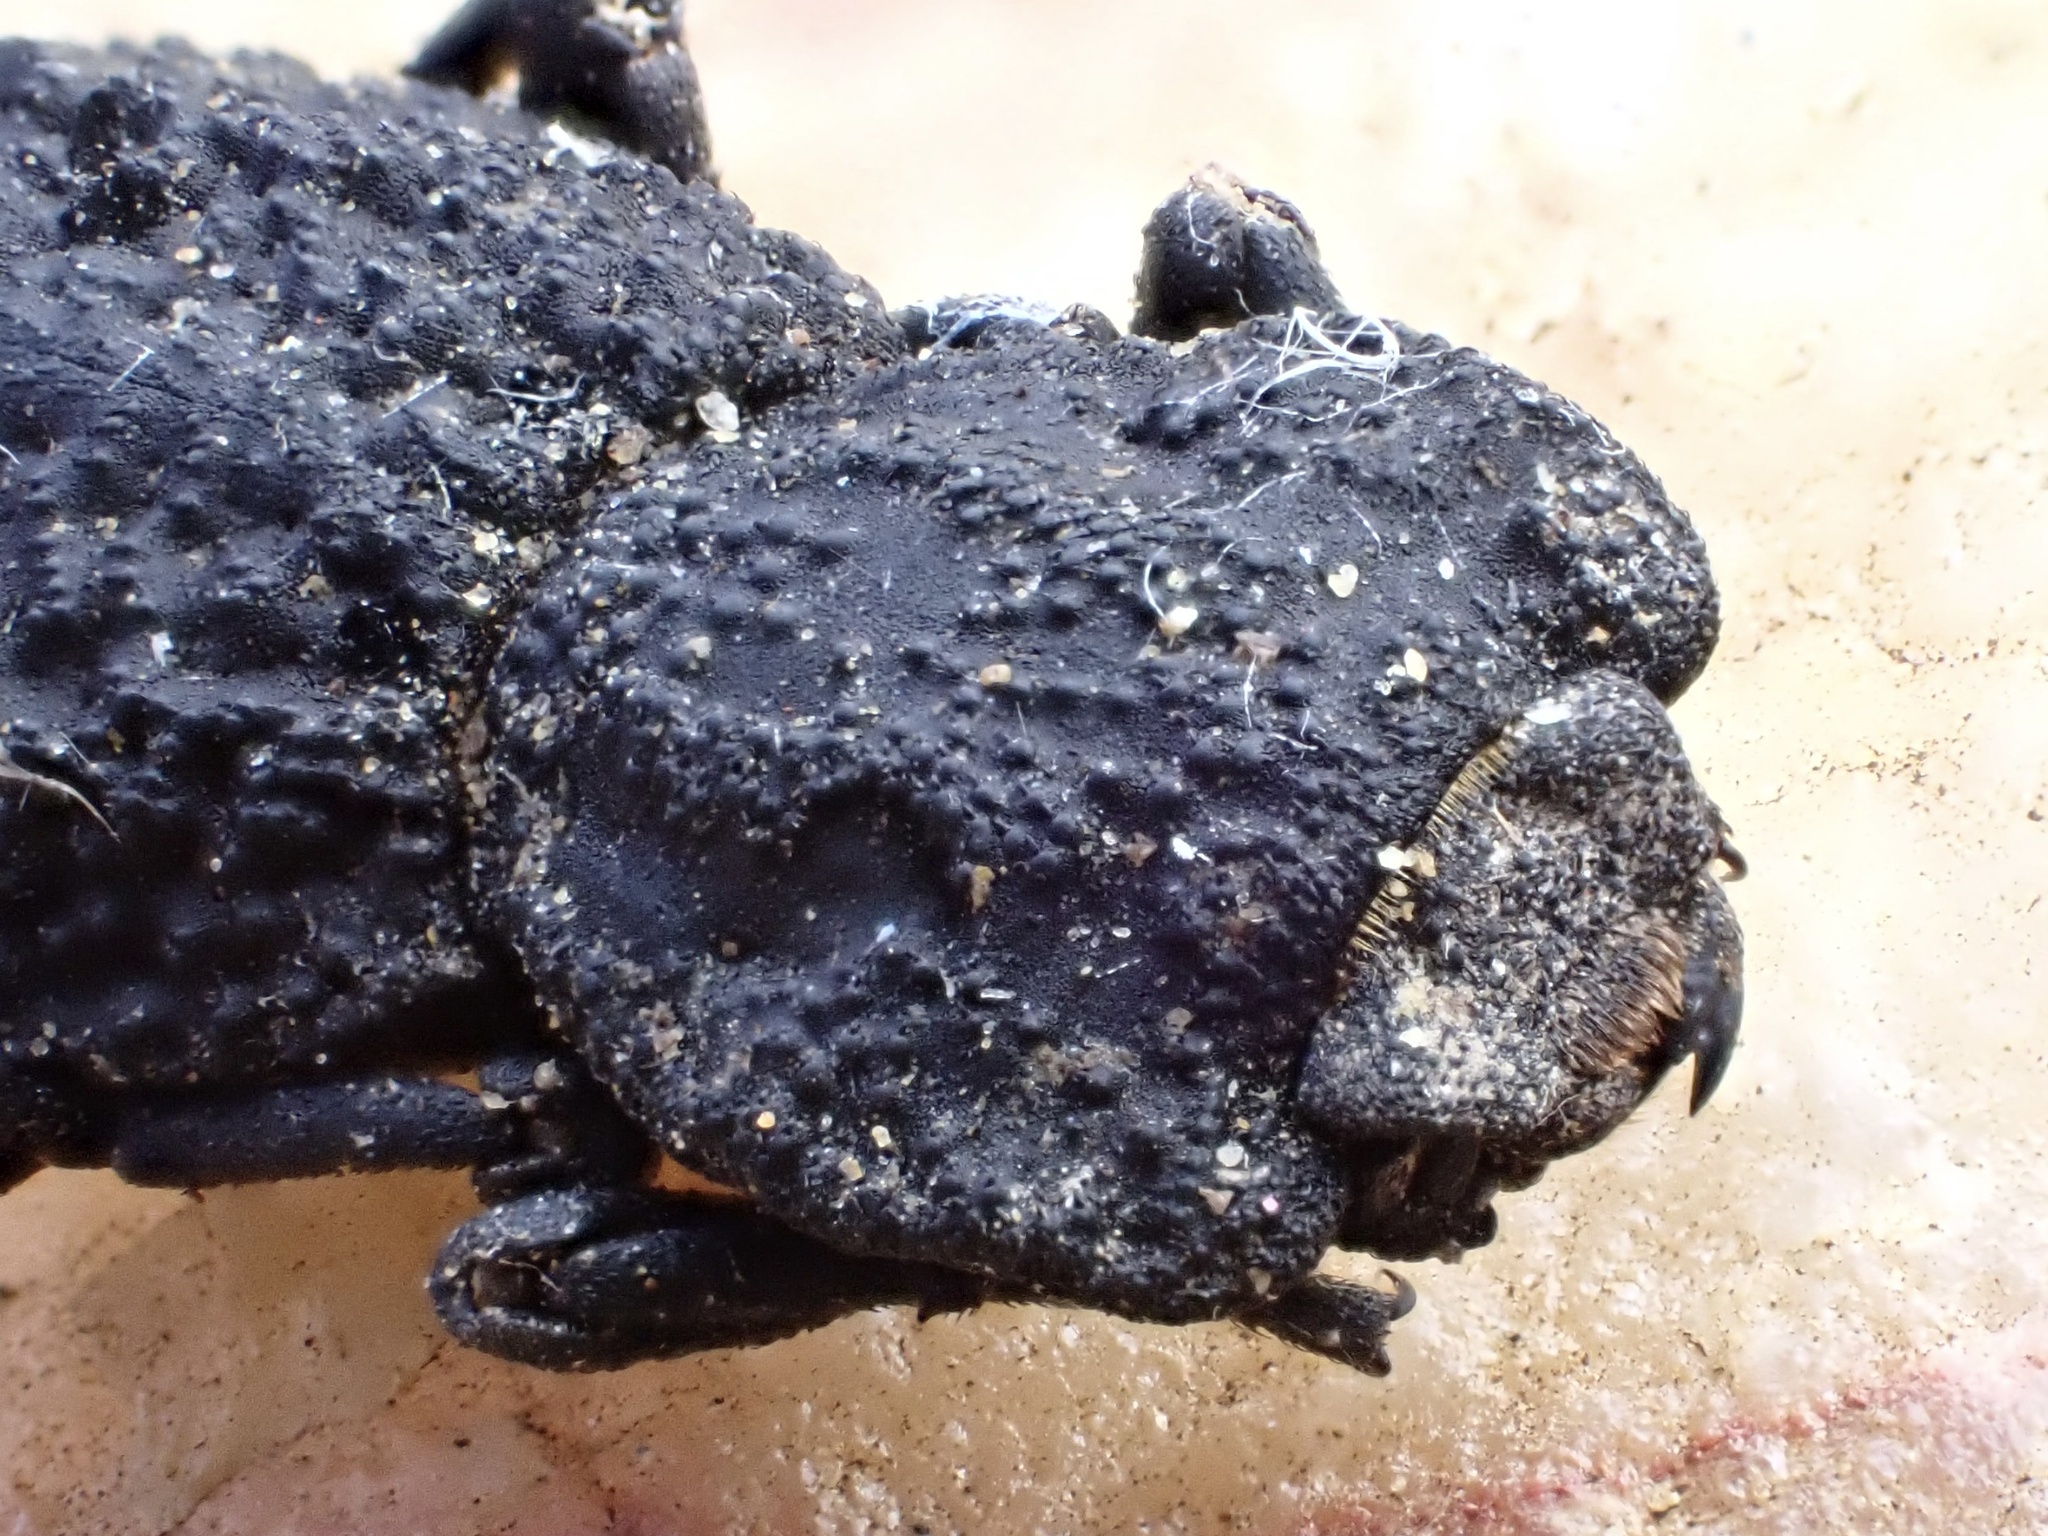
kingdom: Animalia
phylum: Arthropoda
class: Insecta
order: Coleoptera
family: Zopheridae
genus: Phloeodes
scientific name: Phloeodes diabolicus
